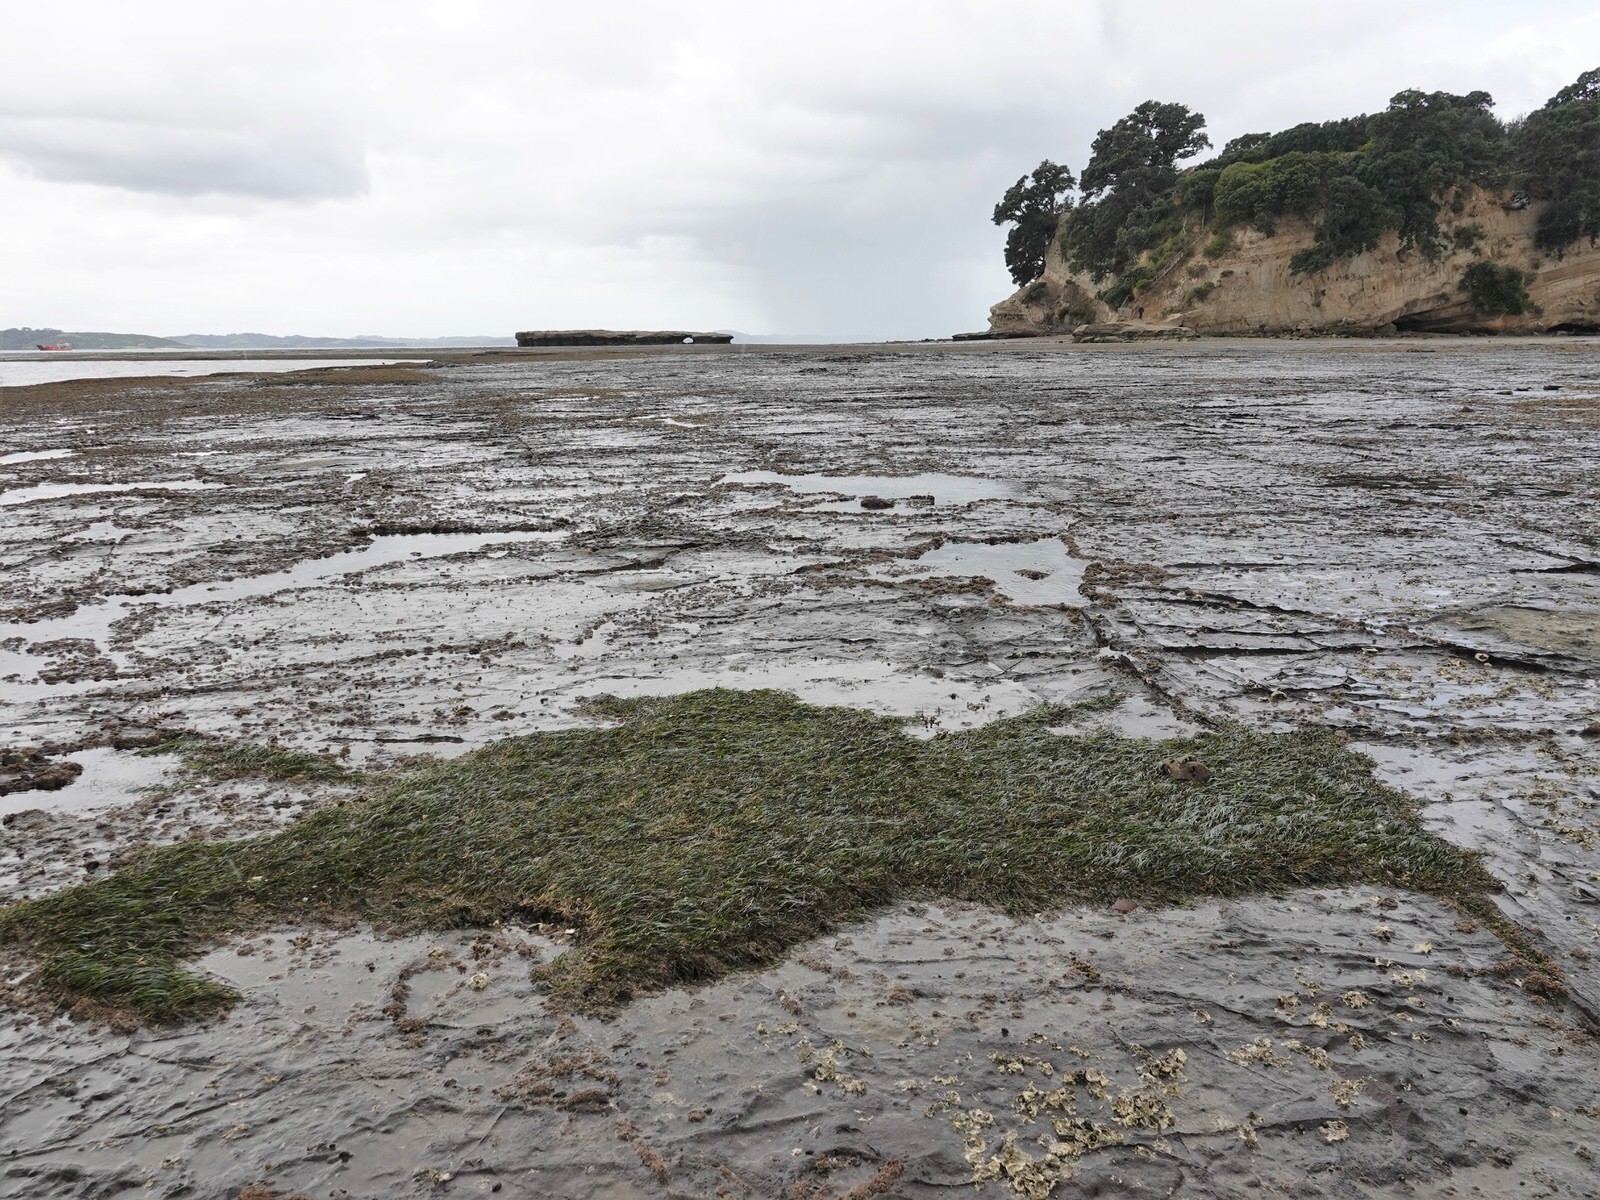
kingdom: Plantae
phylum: Tracheophyta
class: Liliopsida
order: Alismatales
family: Zosteraceae
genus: Zostera
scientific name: Zostera novazelandica
